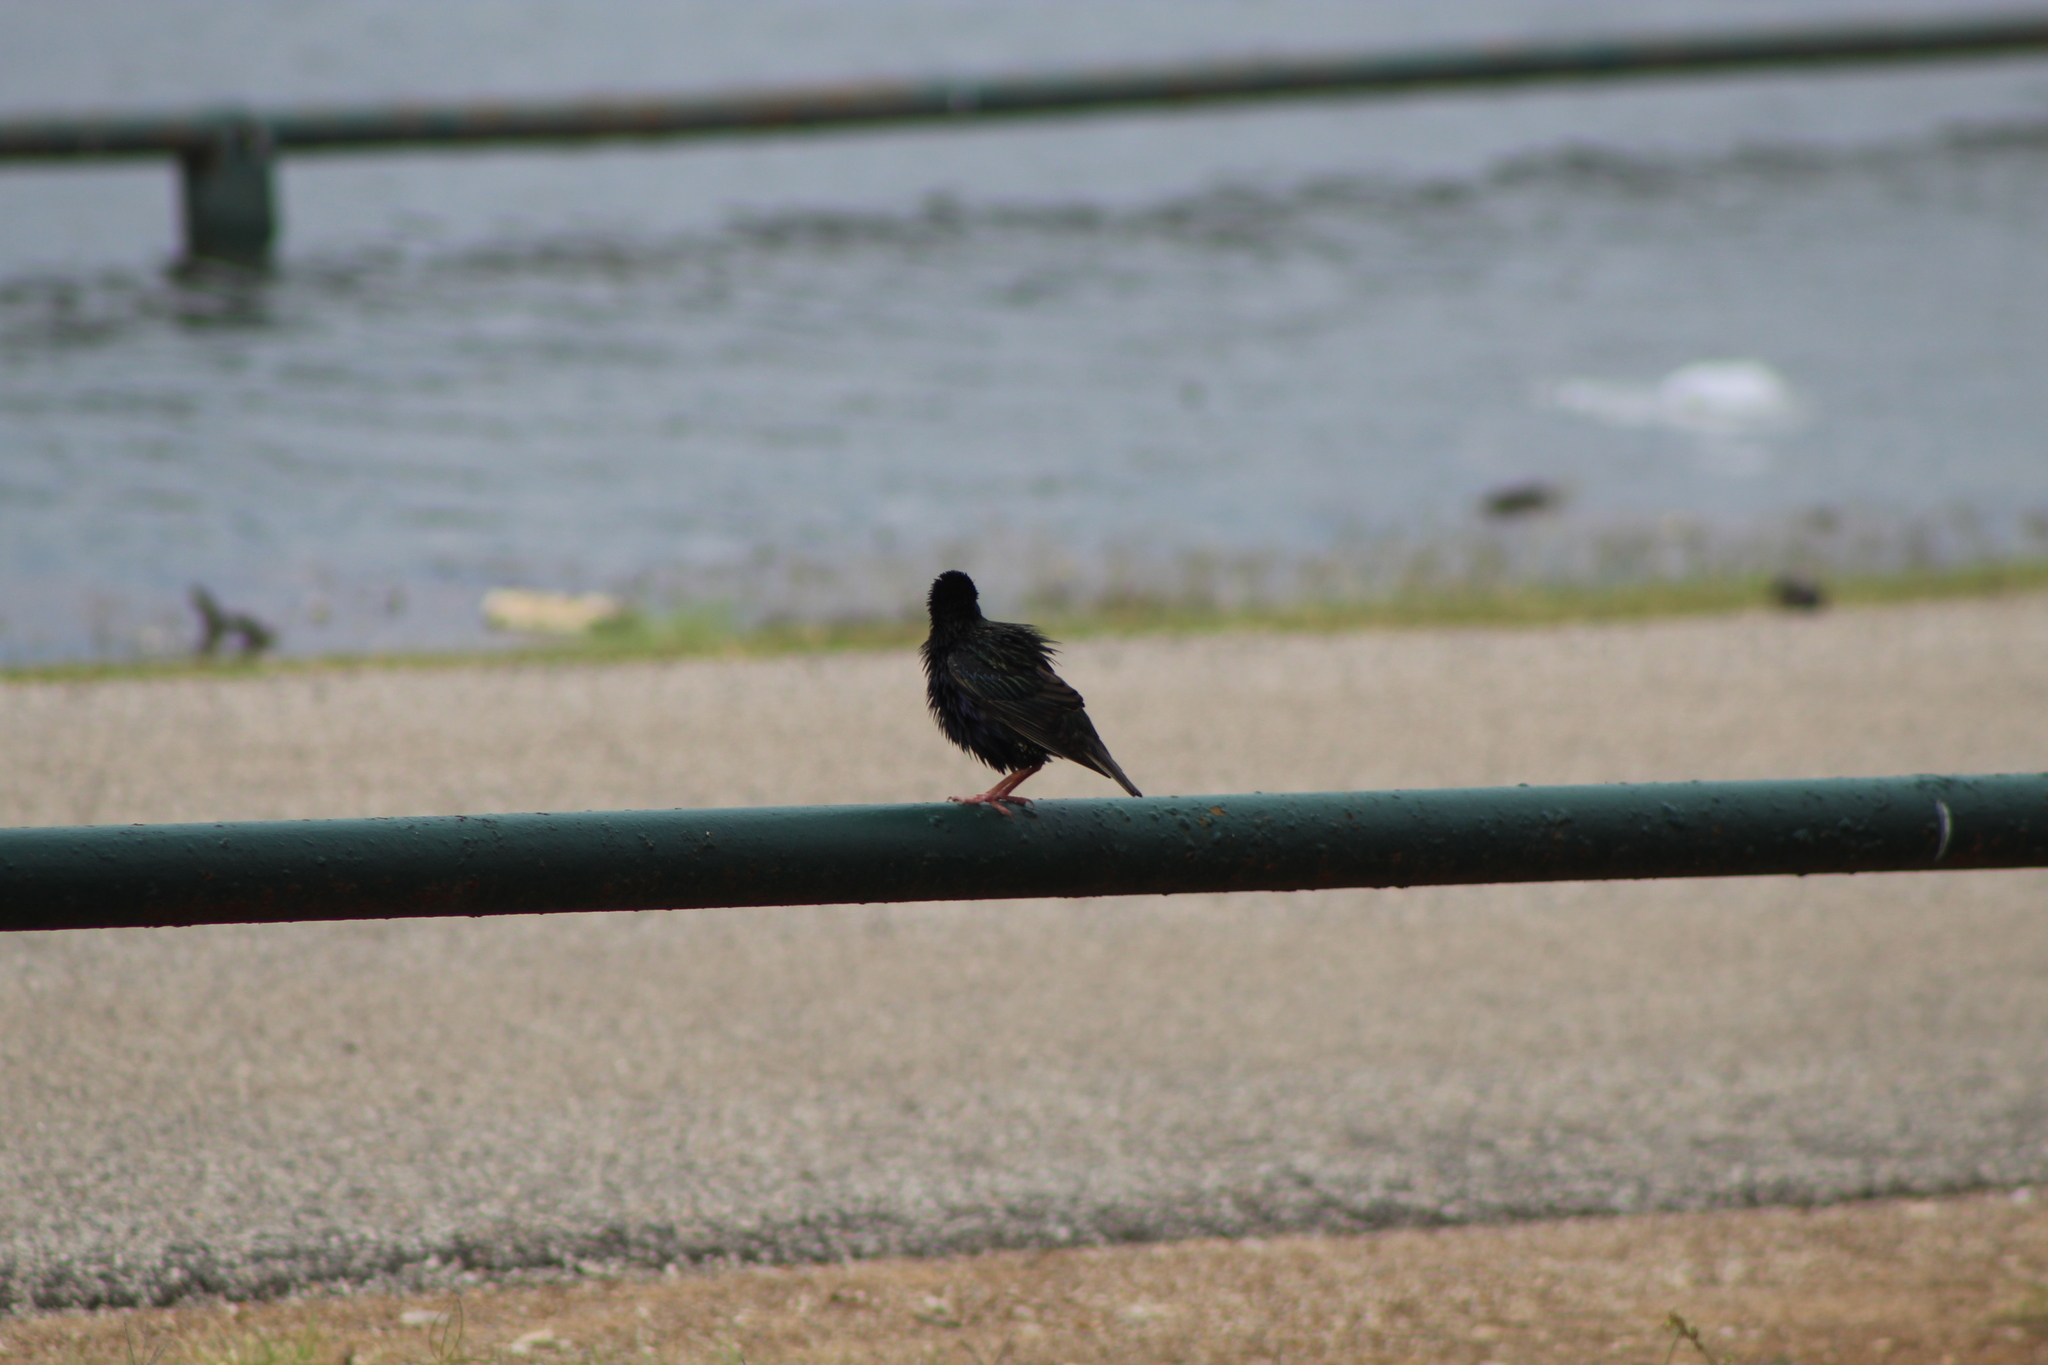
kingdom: Animalia
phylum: Chordata
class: Aves
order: Passeriformes
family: Sturnidae
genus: Sturnus
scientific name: Sturnus vulgaris
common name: Common starling
